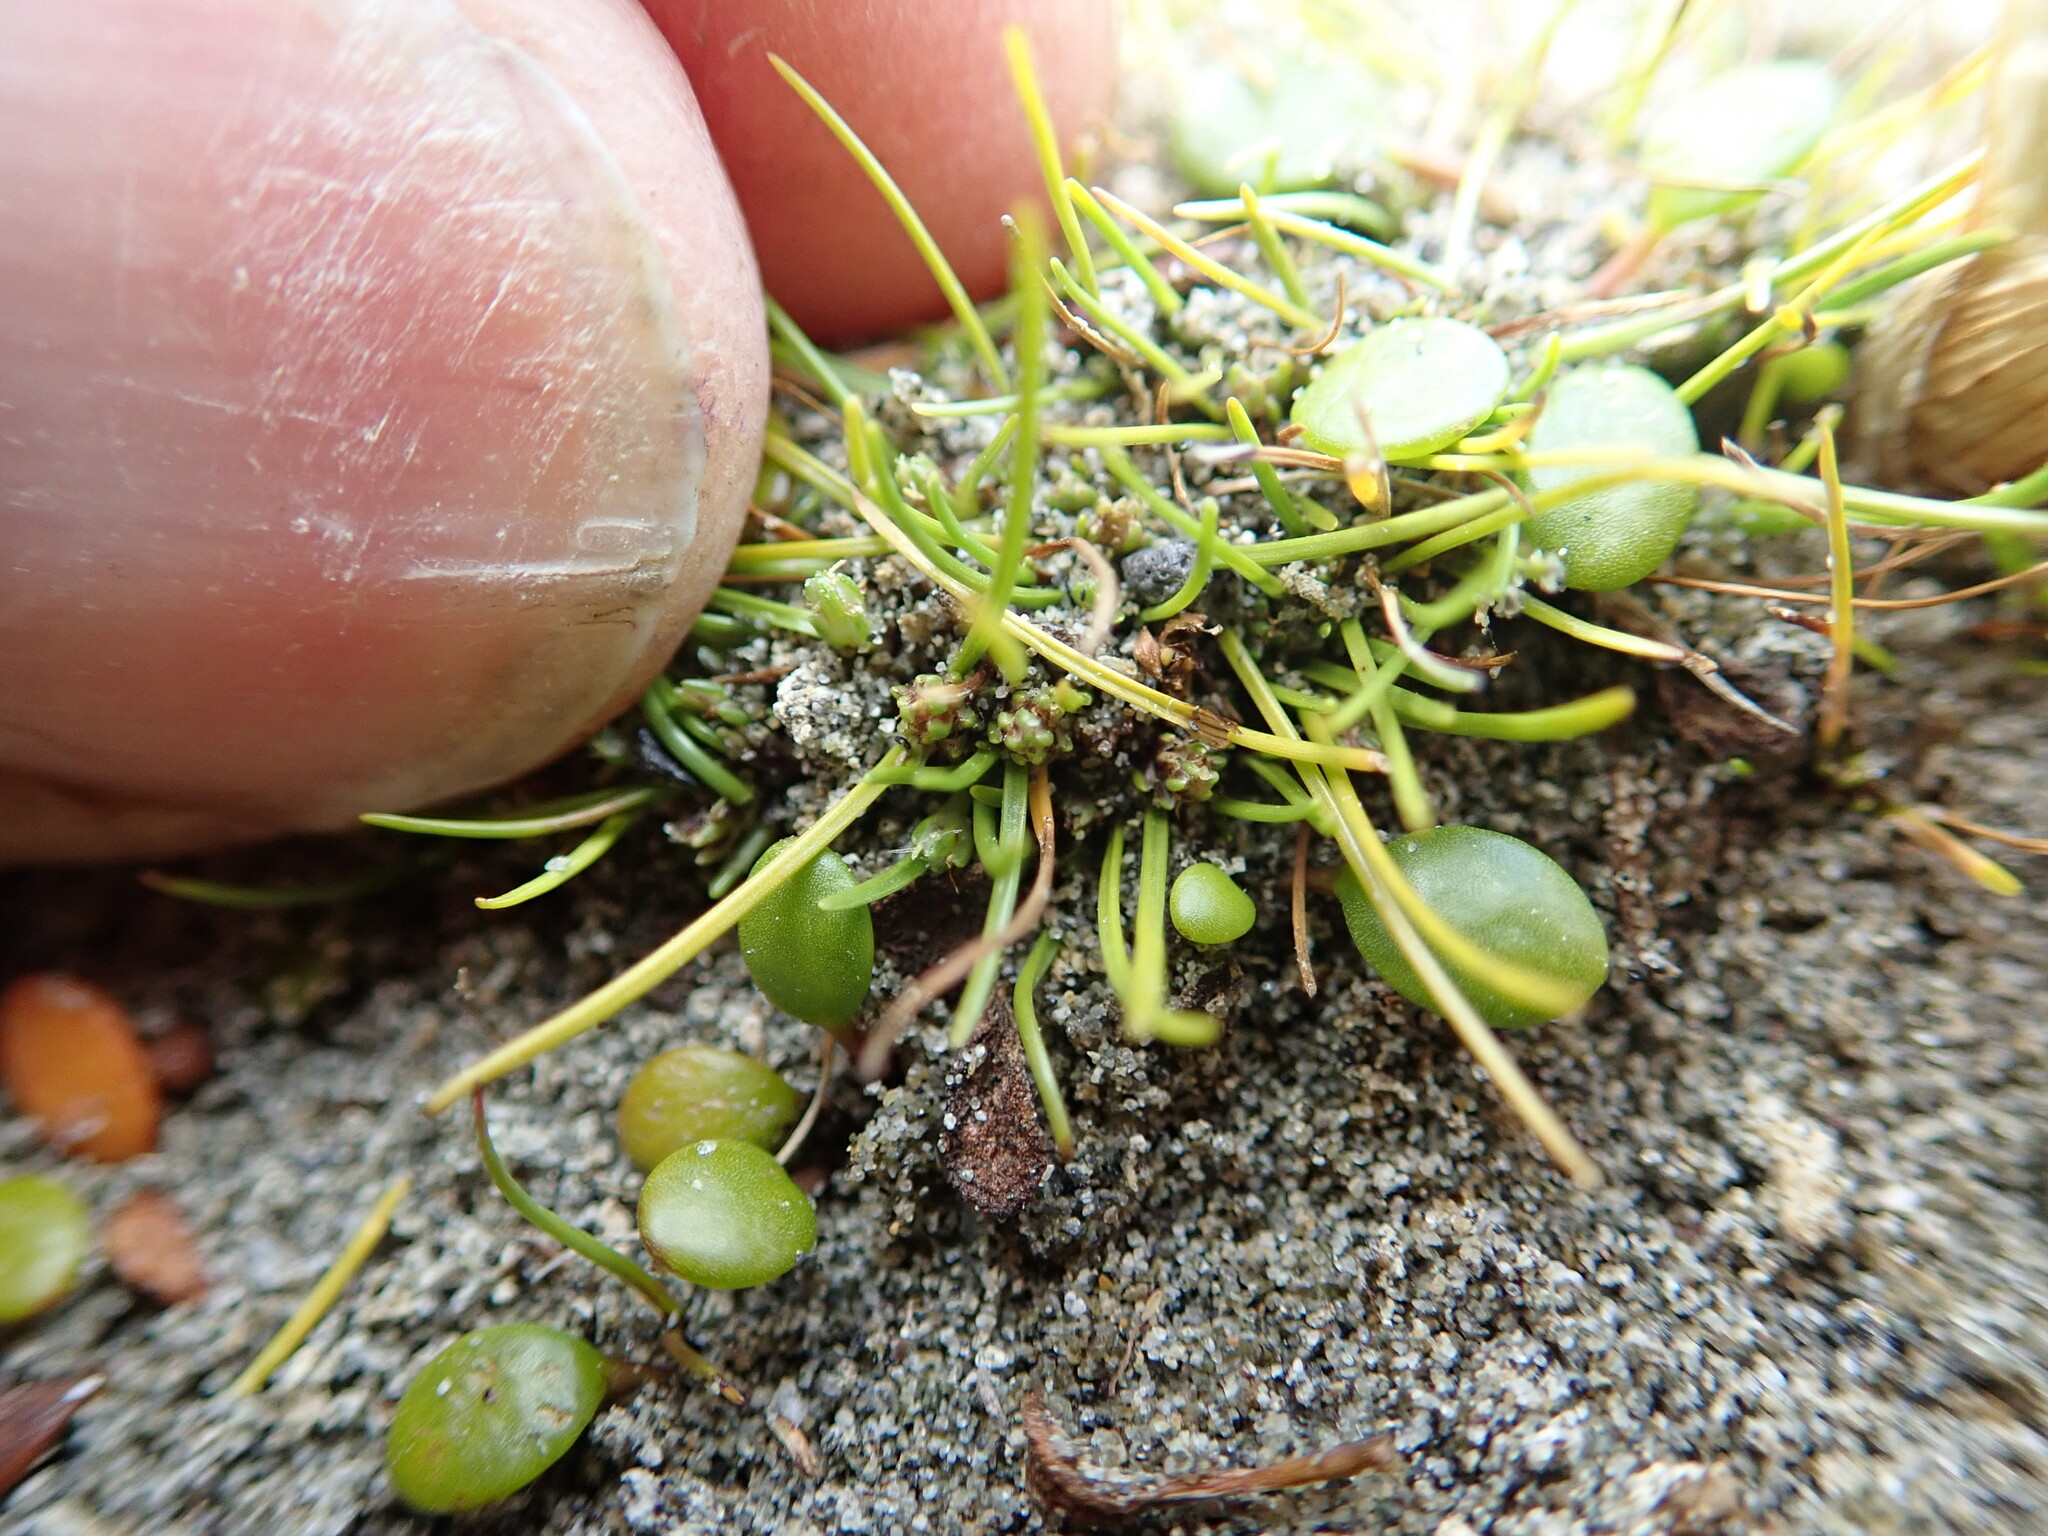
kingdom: Plantae
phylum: Tracheophyta
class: Liliopsida
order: Poales
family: Cyperaceae
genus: Isolepis
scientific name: Isolepis basilaris
